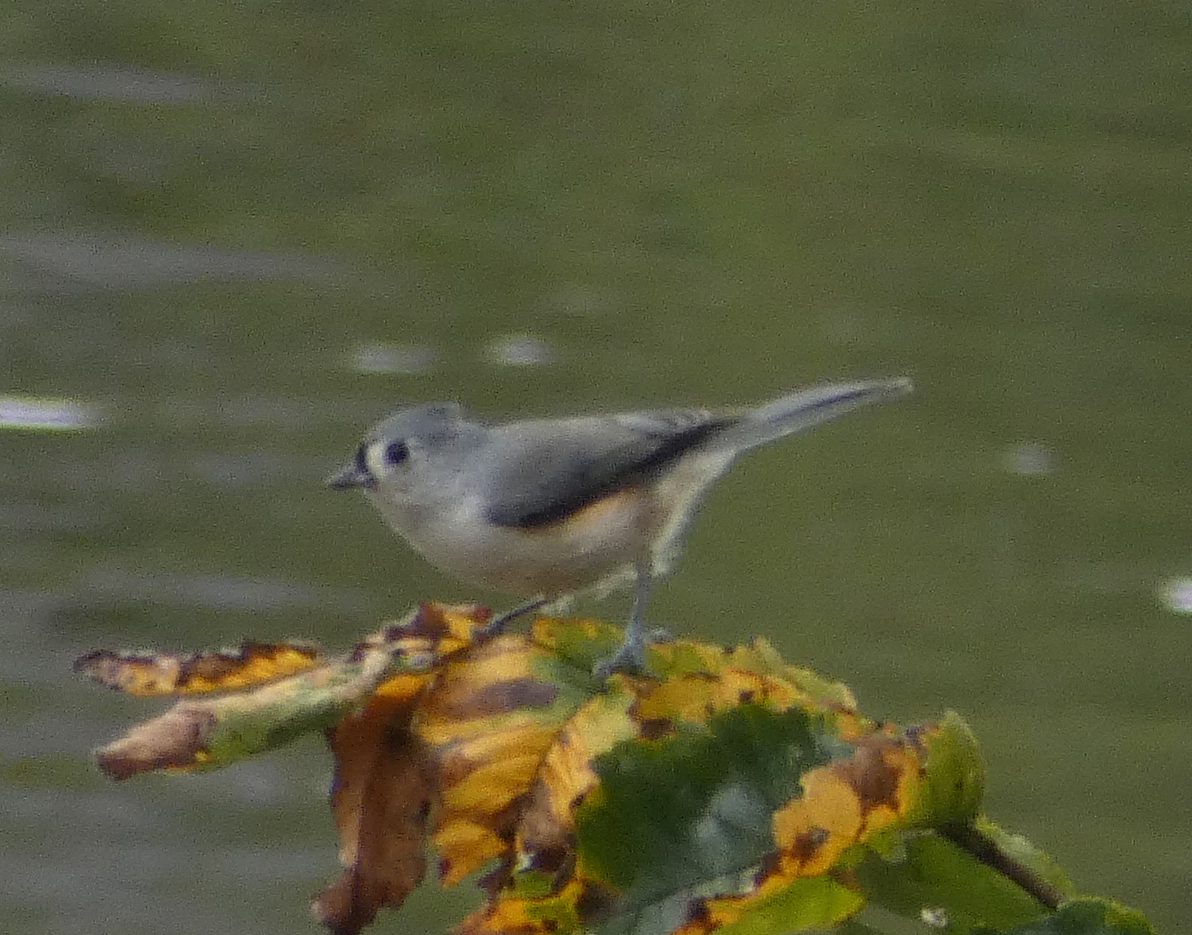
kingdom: Animalia
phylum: Chordata
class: Aves
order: Passeriformes
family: Paridae
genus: Baeolophus
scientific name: Baeolophus bicolor
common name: Tufted titmouse
